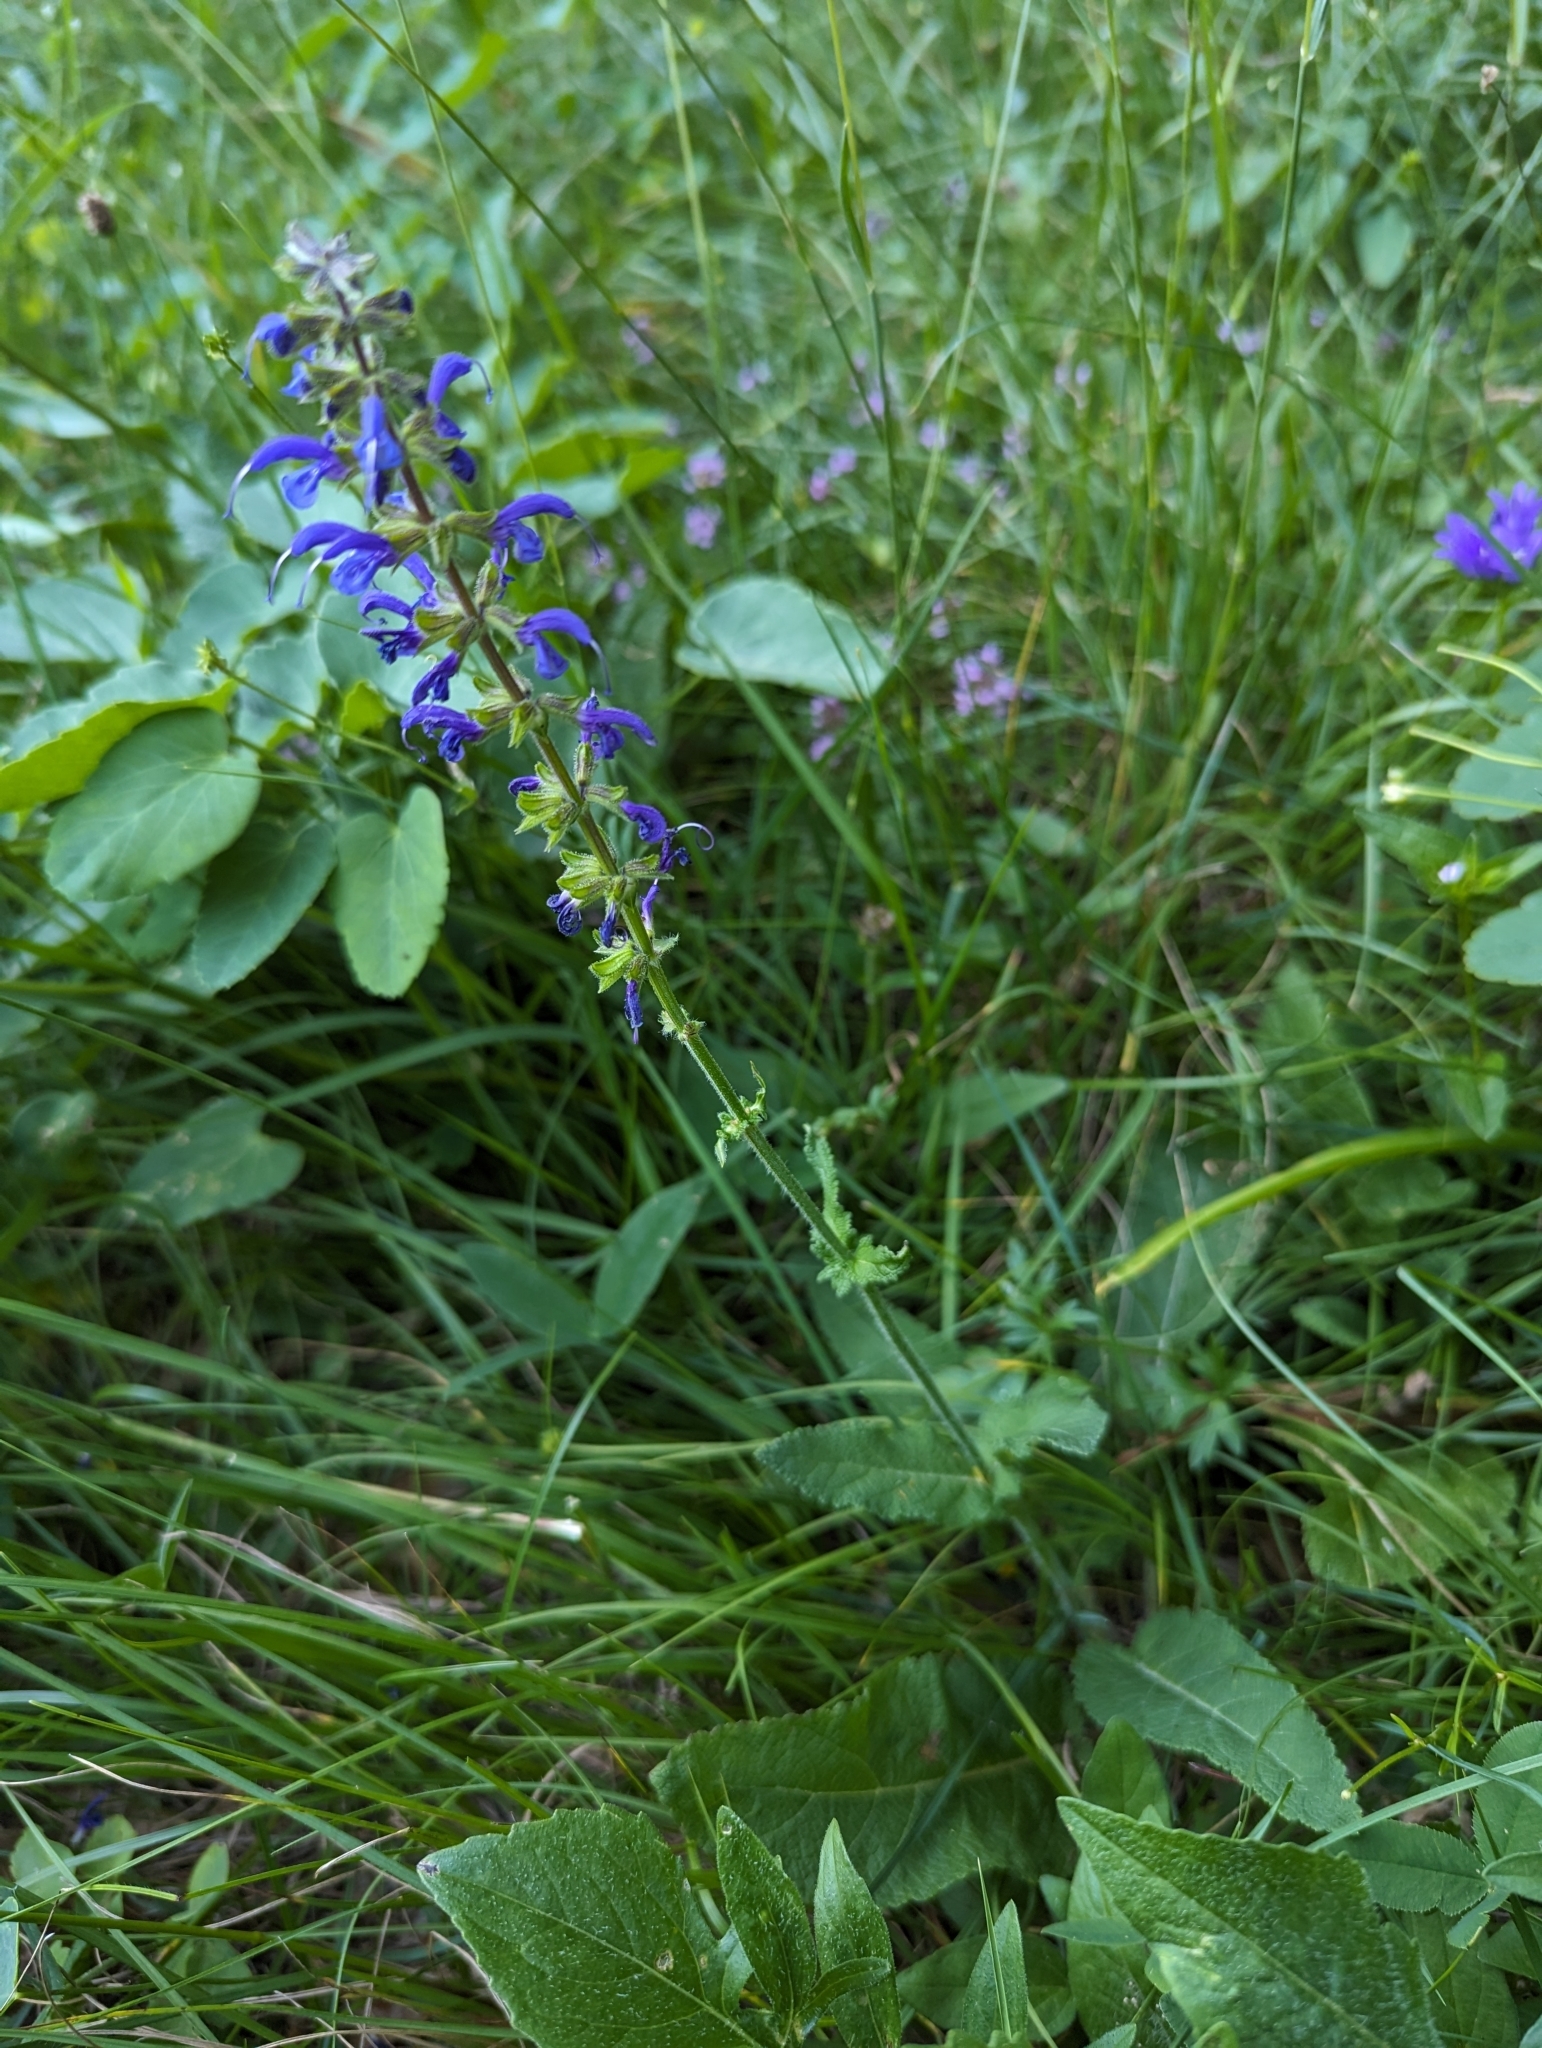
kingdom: Plantae
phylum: Tracheophyta
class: Magnoliopsida
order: Lamiales
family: Lamiaceae
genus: Salvia
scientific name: Salvia pratensis
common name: Meadow sage
